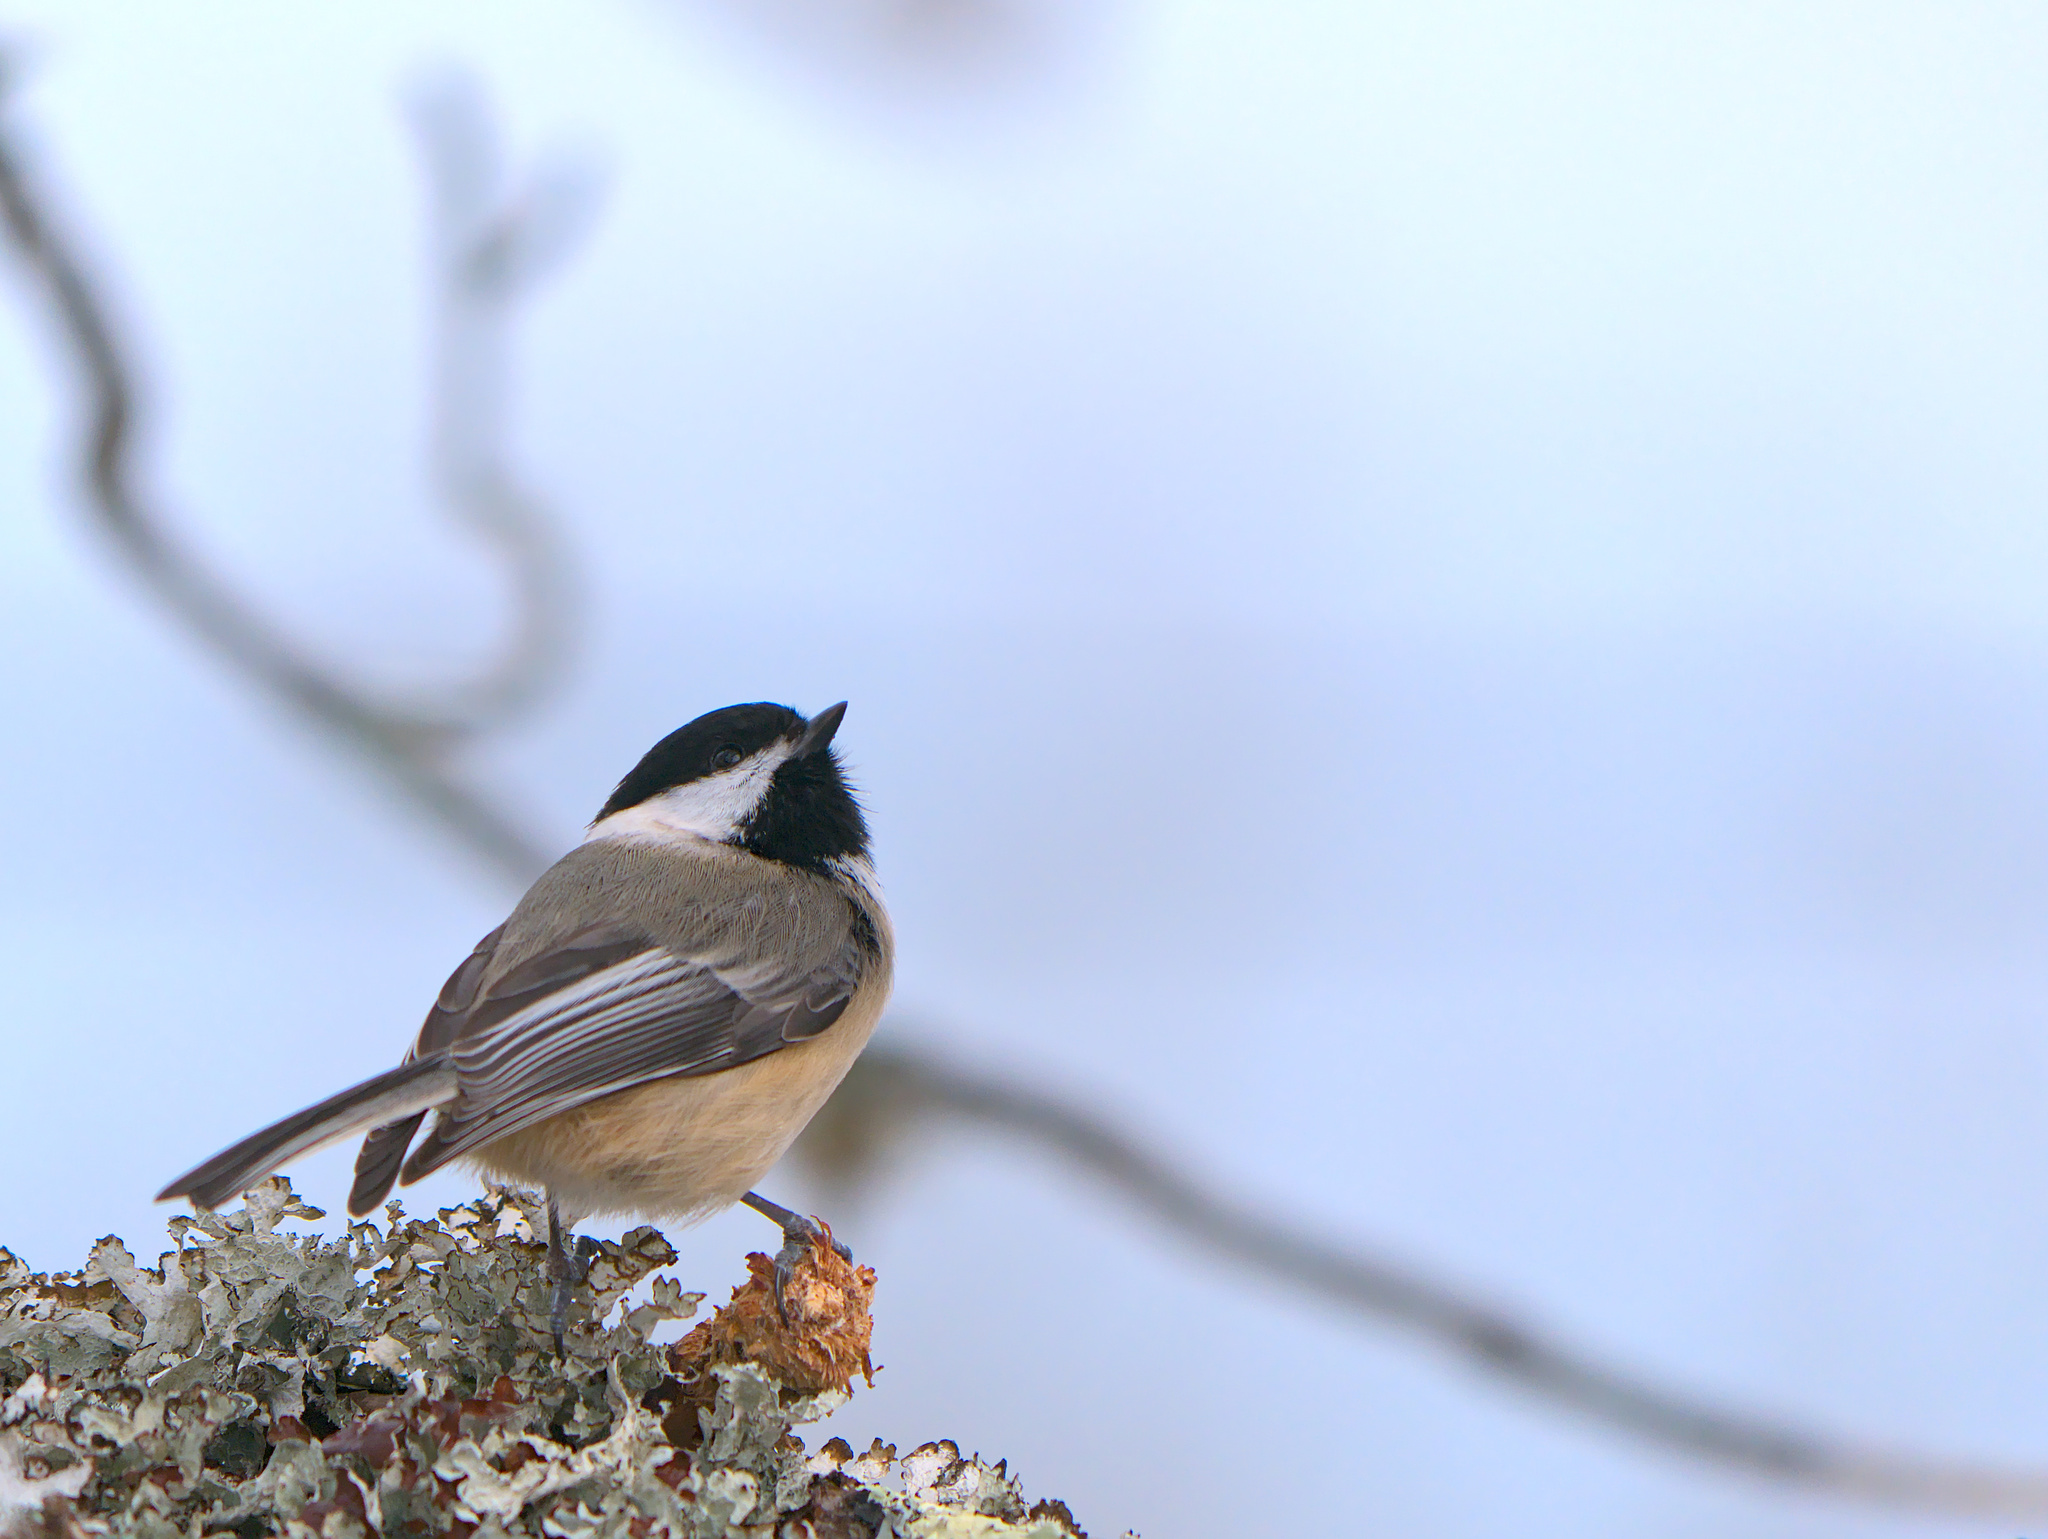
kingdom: Animalia
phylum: Chordata
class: Aves
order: Passeriformes
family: Paridae
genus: Poecile
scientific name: Poecile atricapillus
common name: Black-capped chickadee
